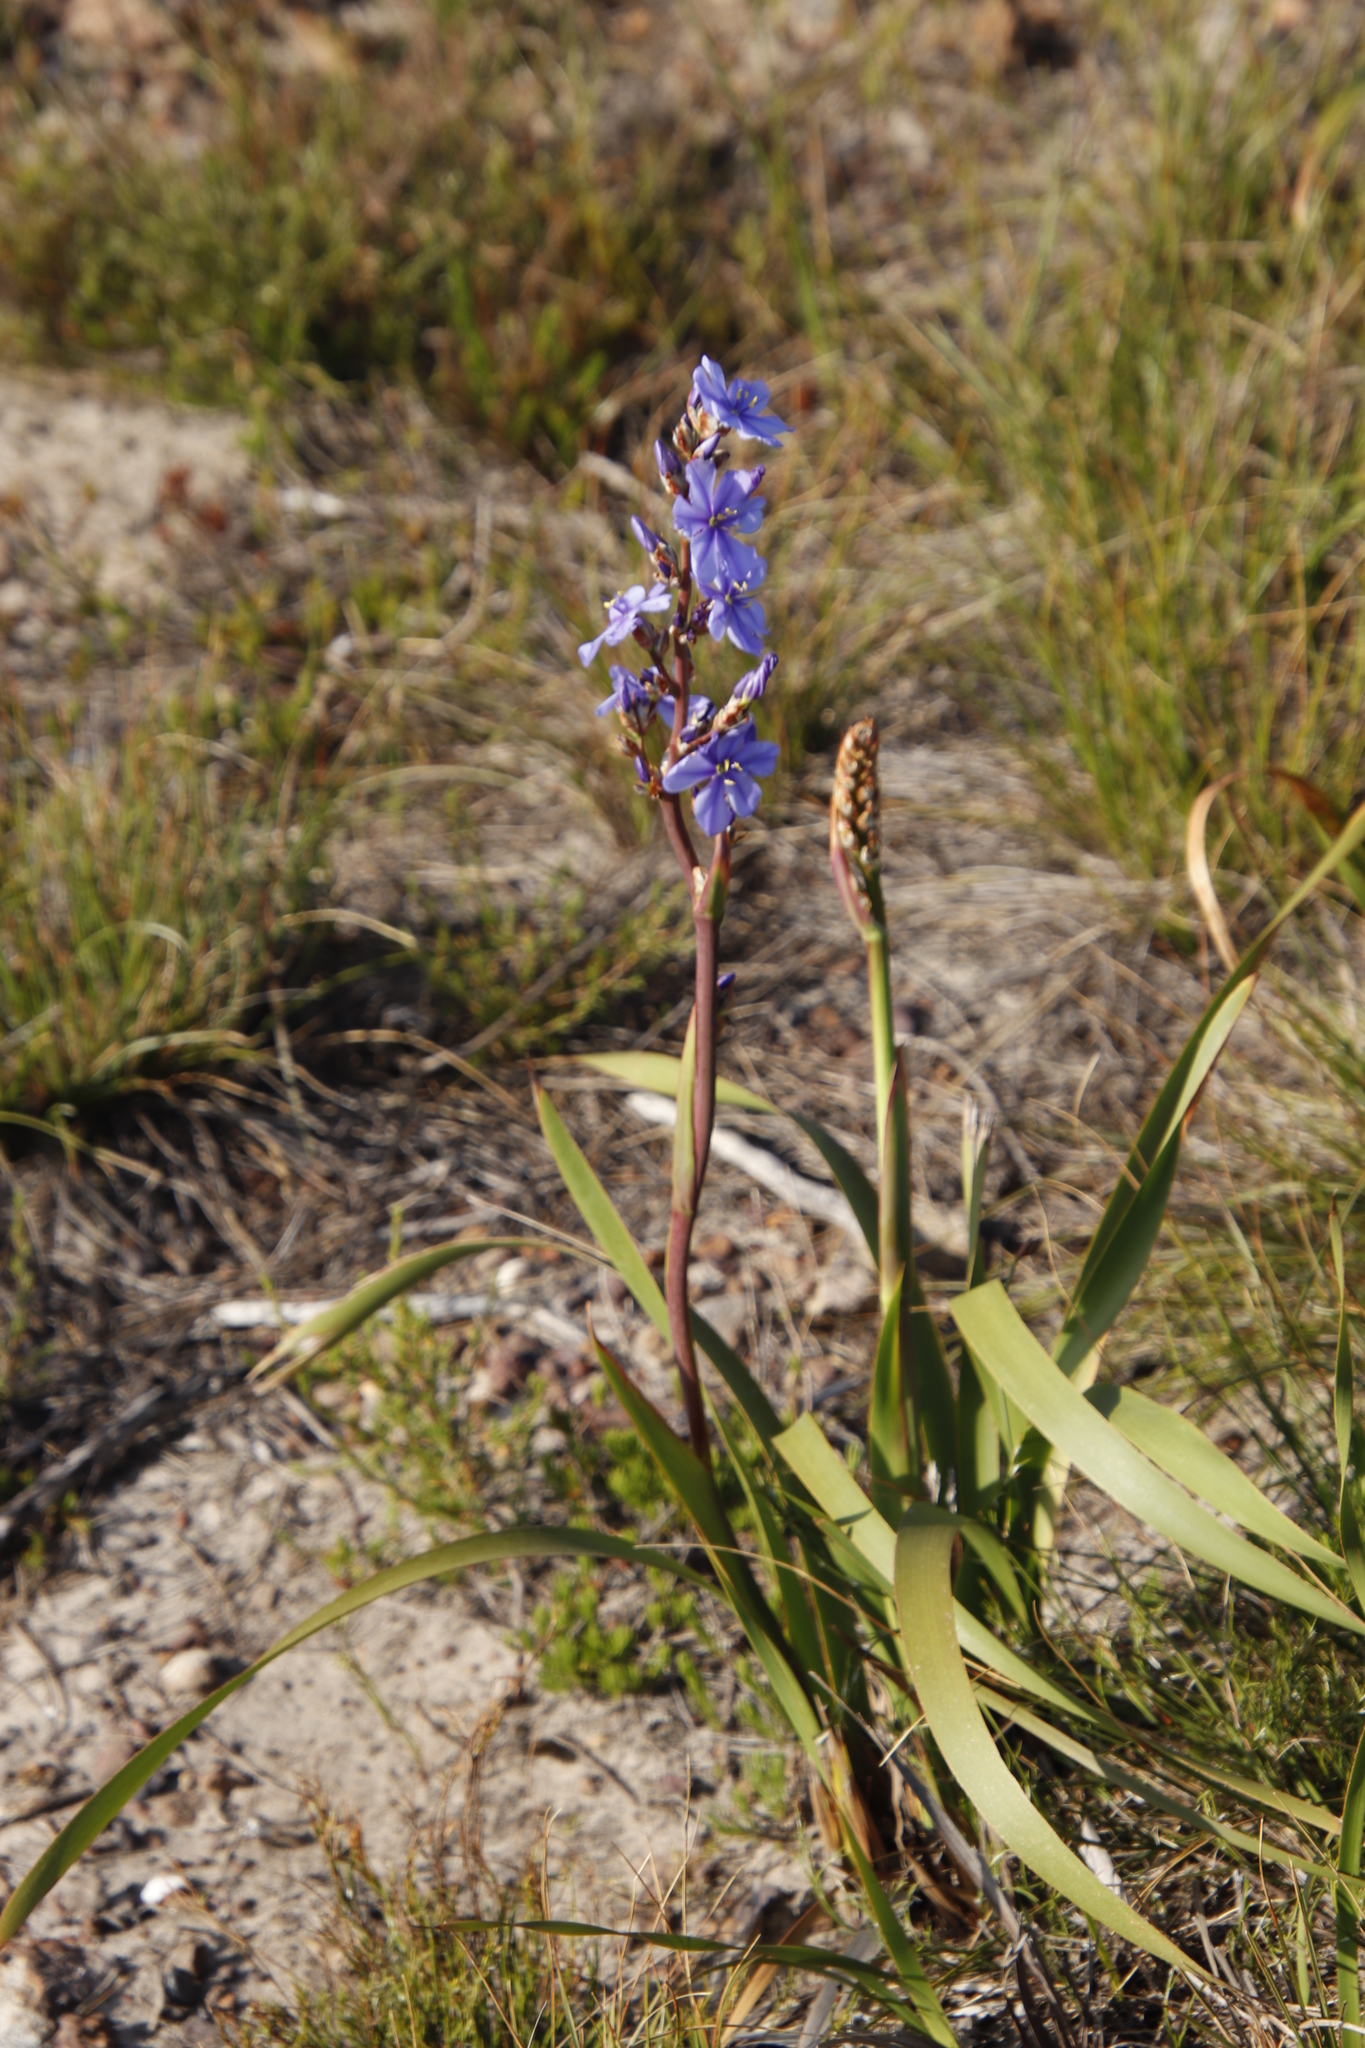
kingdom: Plantae
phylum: Tracheophyta
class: Liliopsida
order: Asparagales
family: Iridaceae
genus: Aristea
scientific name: Aristea capitata
